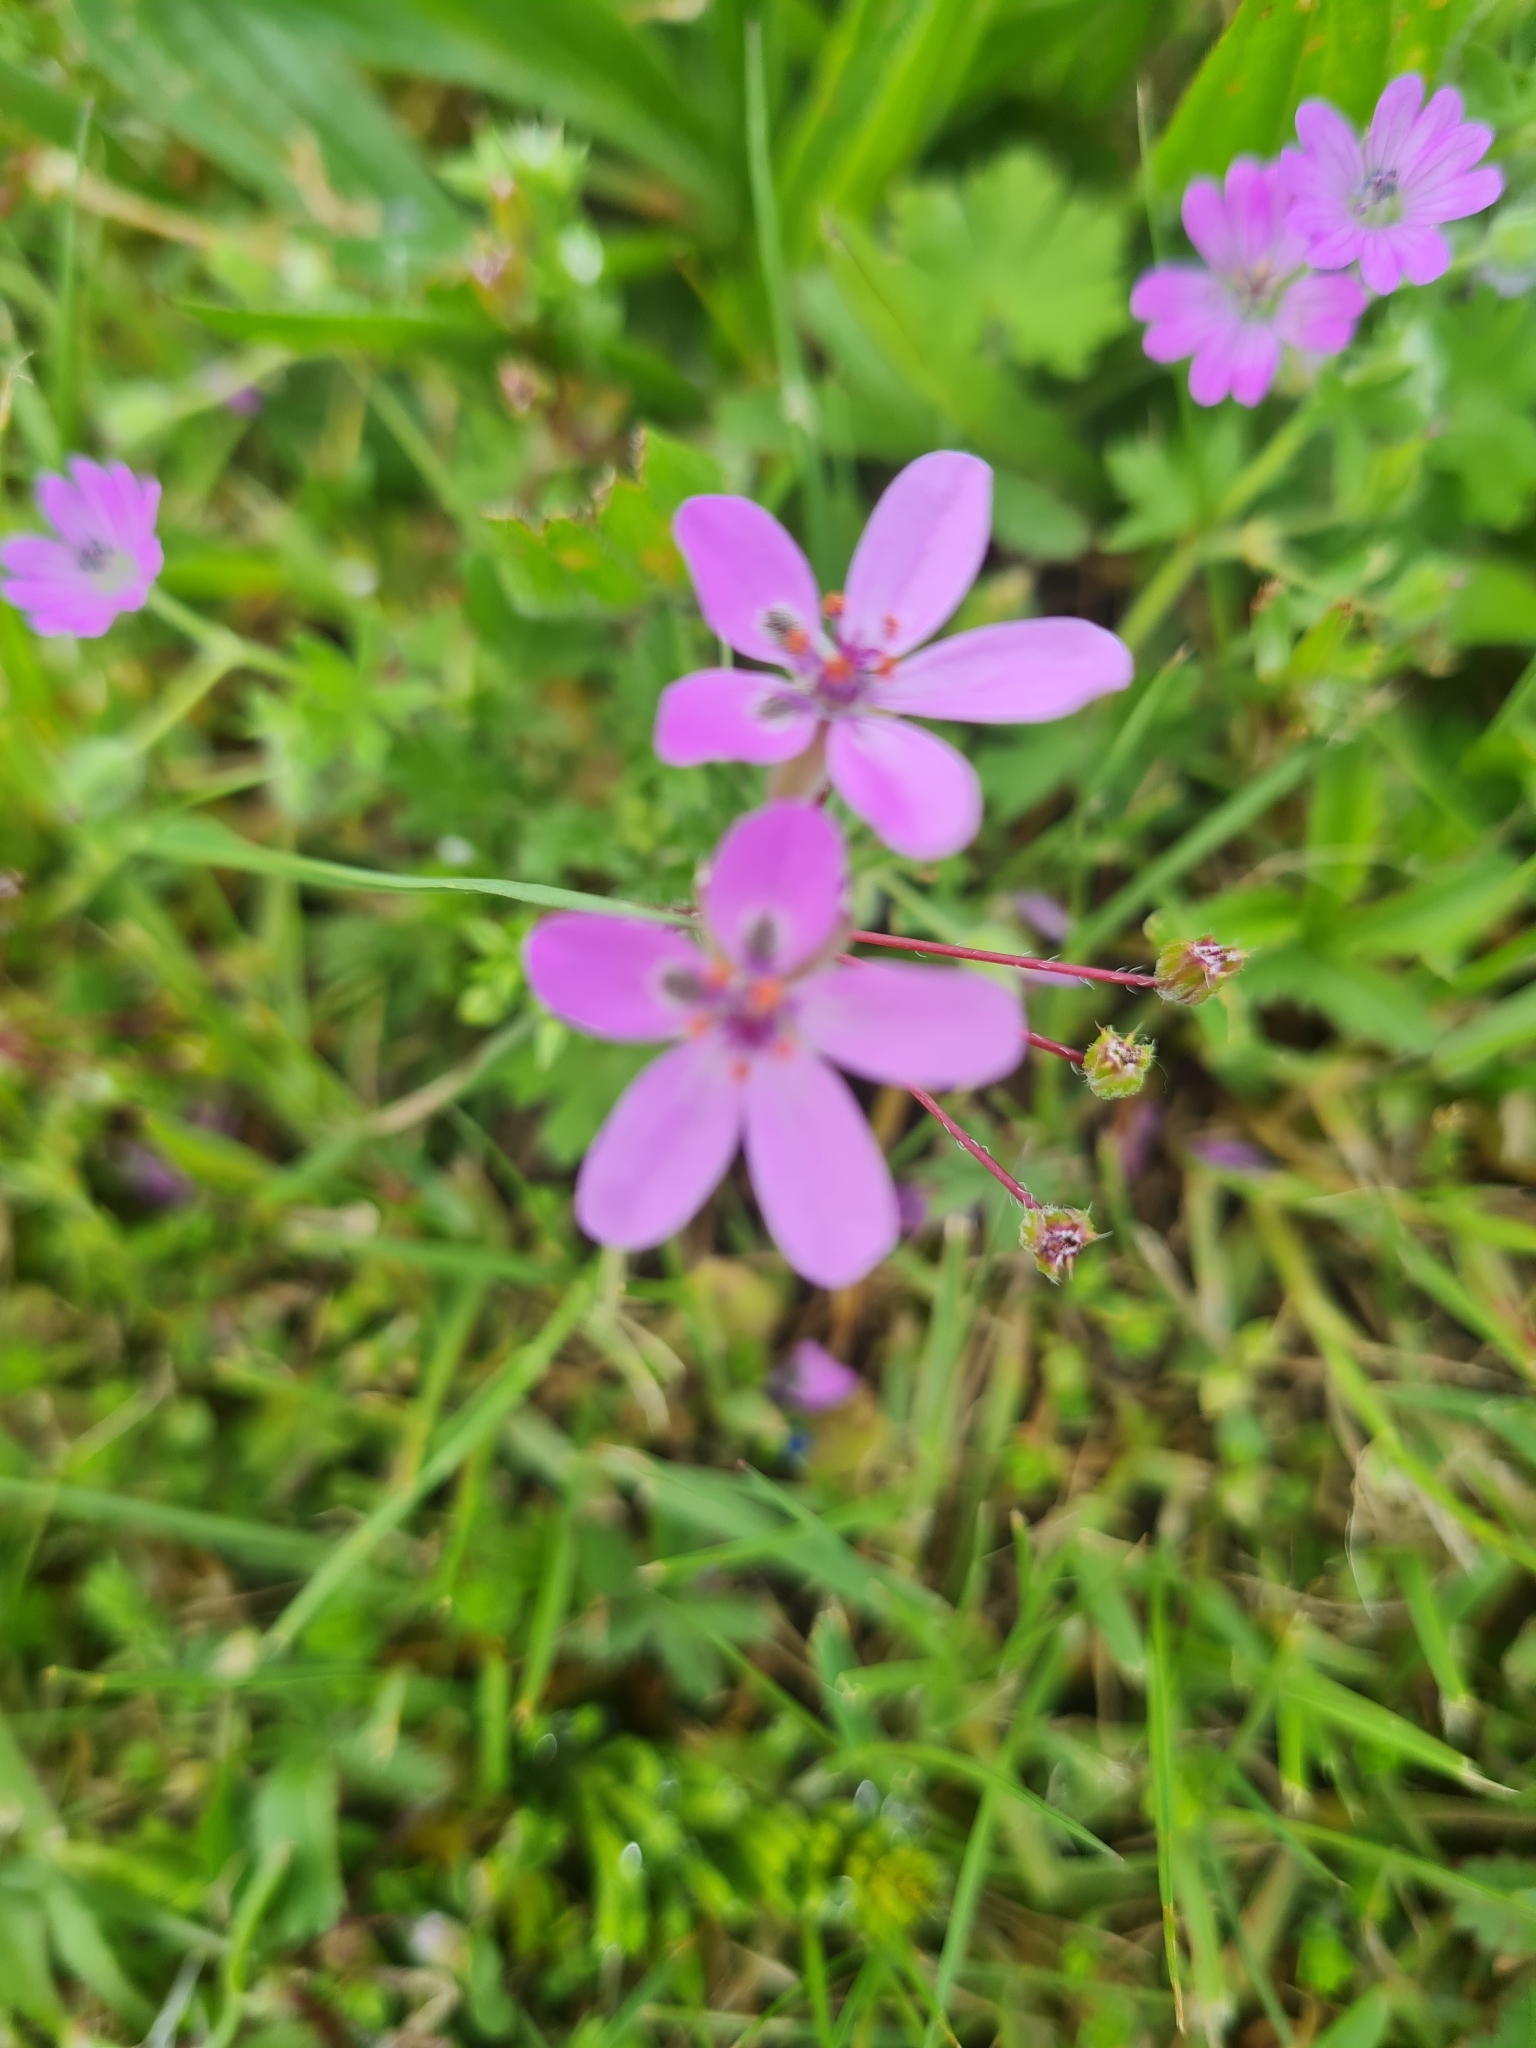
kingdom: Plantae
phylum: Tracheophyta
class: Magnoliopsida
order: Geraniales
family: Geraniaceae
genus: Erodium
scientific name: Erodium cicutarium
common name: Common stork's-bill
